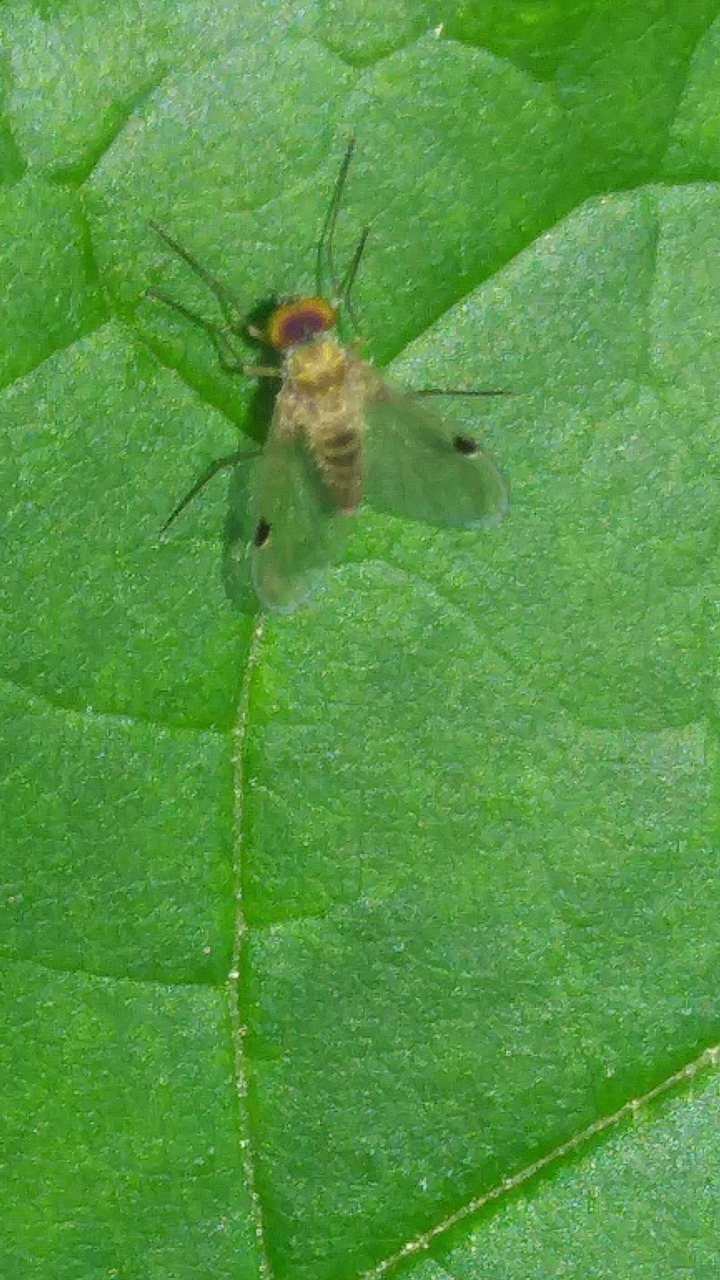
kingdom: Animalia
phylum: Arthropoda
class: Insecta
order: Diptera
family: Rhagionidae
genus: Chrysopilus
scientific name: Chrysopilus modestus
